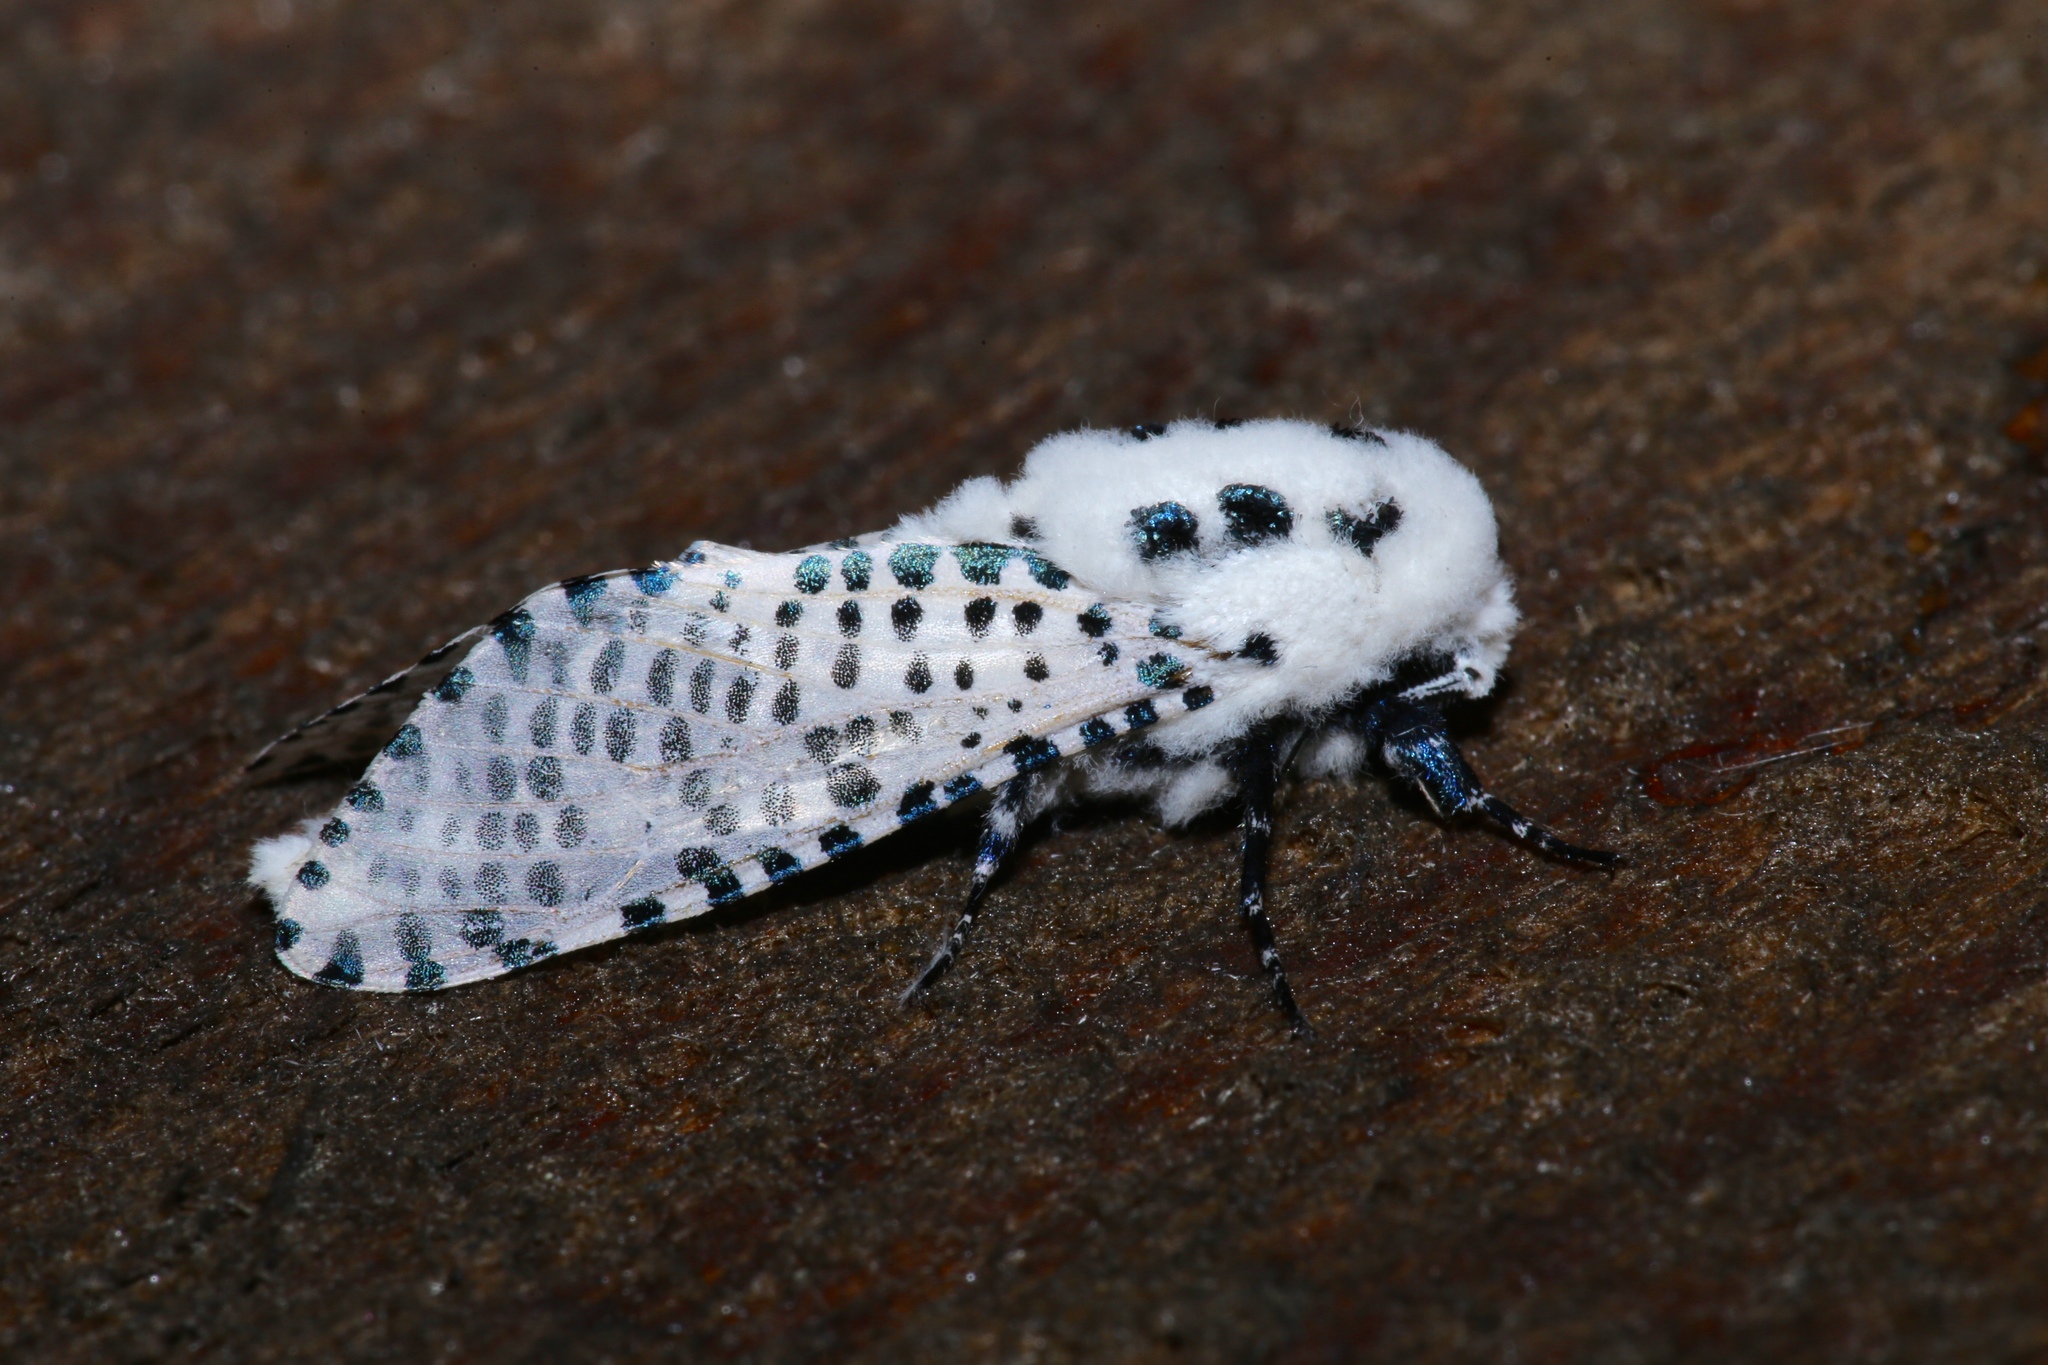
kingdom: Animalia
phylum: Arthropoda
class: Insecta
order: Lepidoptera
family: Cossidae
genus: Zeuzera
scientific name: Zeuzera pyrina
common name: Leopard moth
